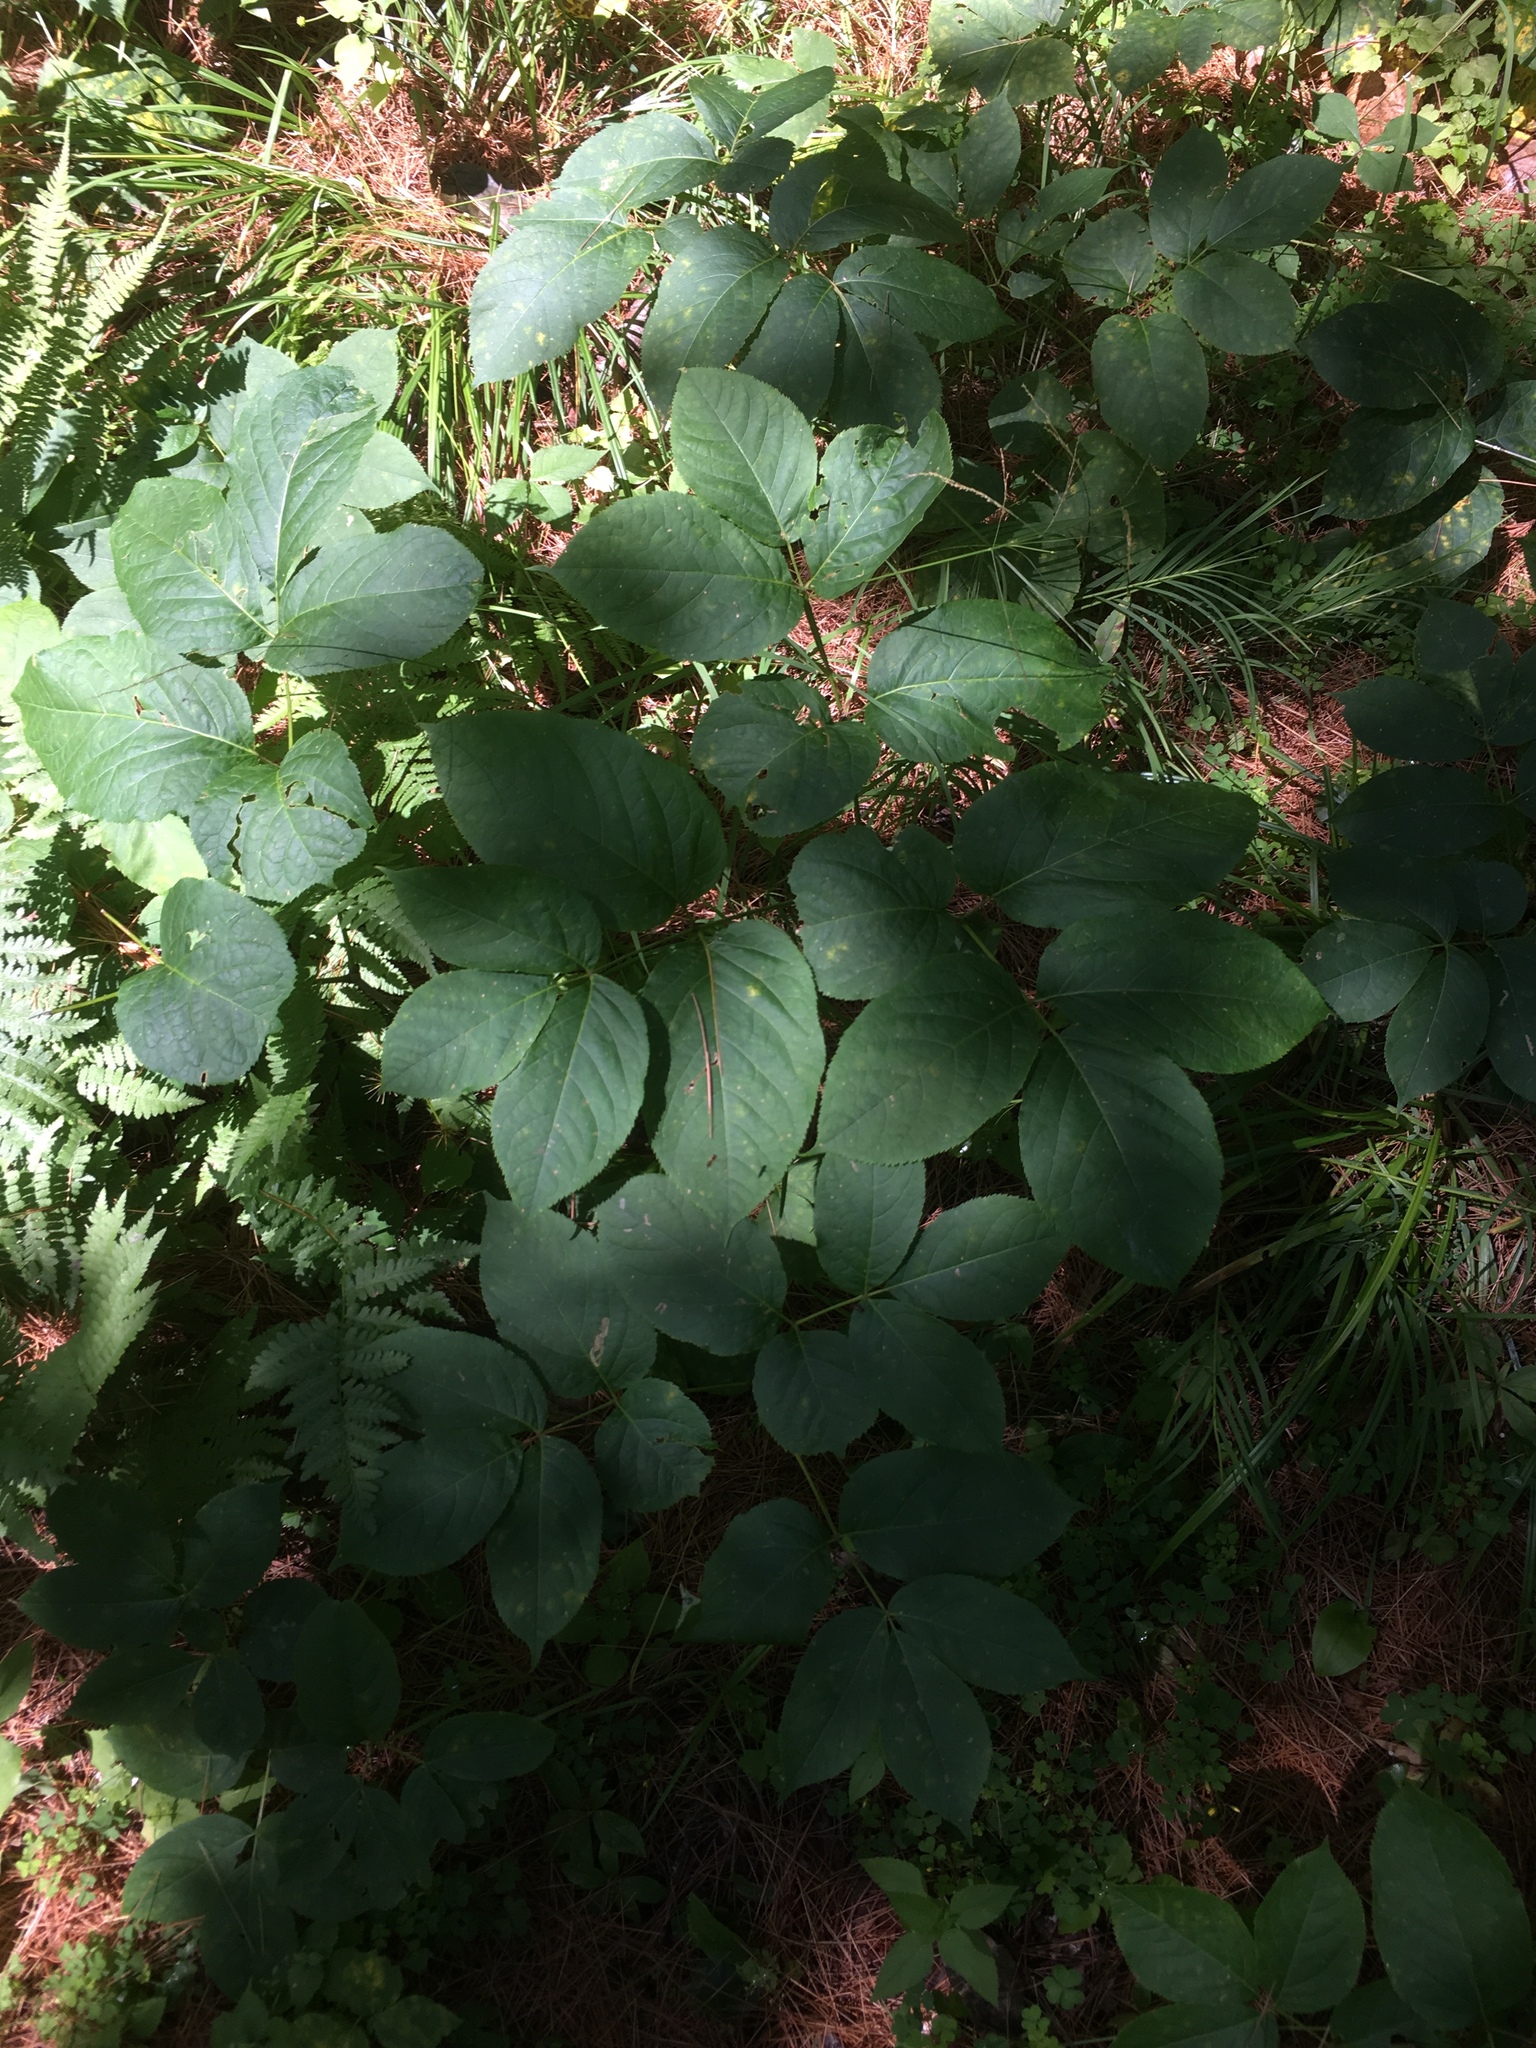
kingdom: Plantae
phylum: Tracheophyta
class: Magnoliopsida
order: Apiales
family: Araliaceae
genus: Aralia
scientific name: Aralia nudicaulis
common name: Wild sarsaparilla
